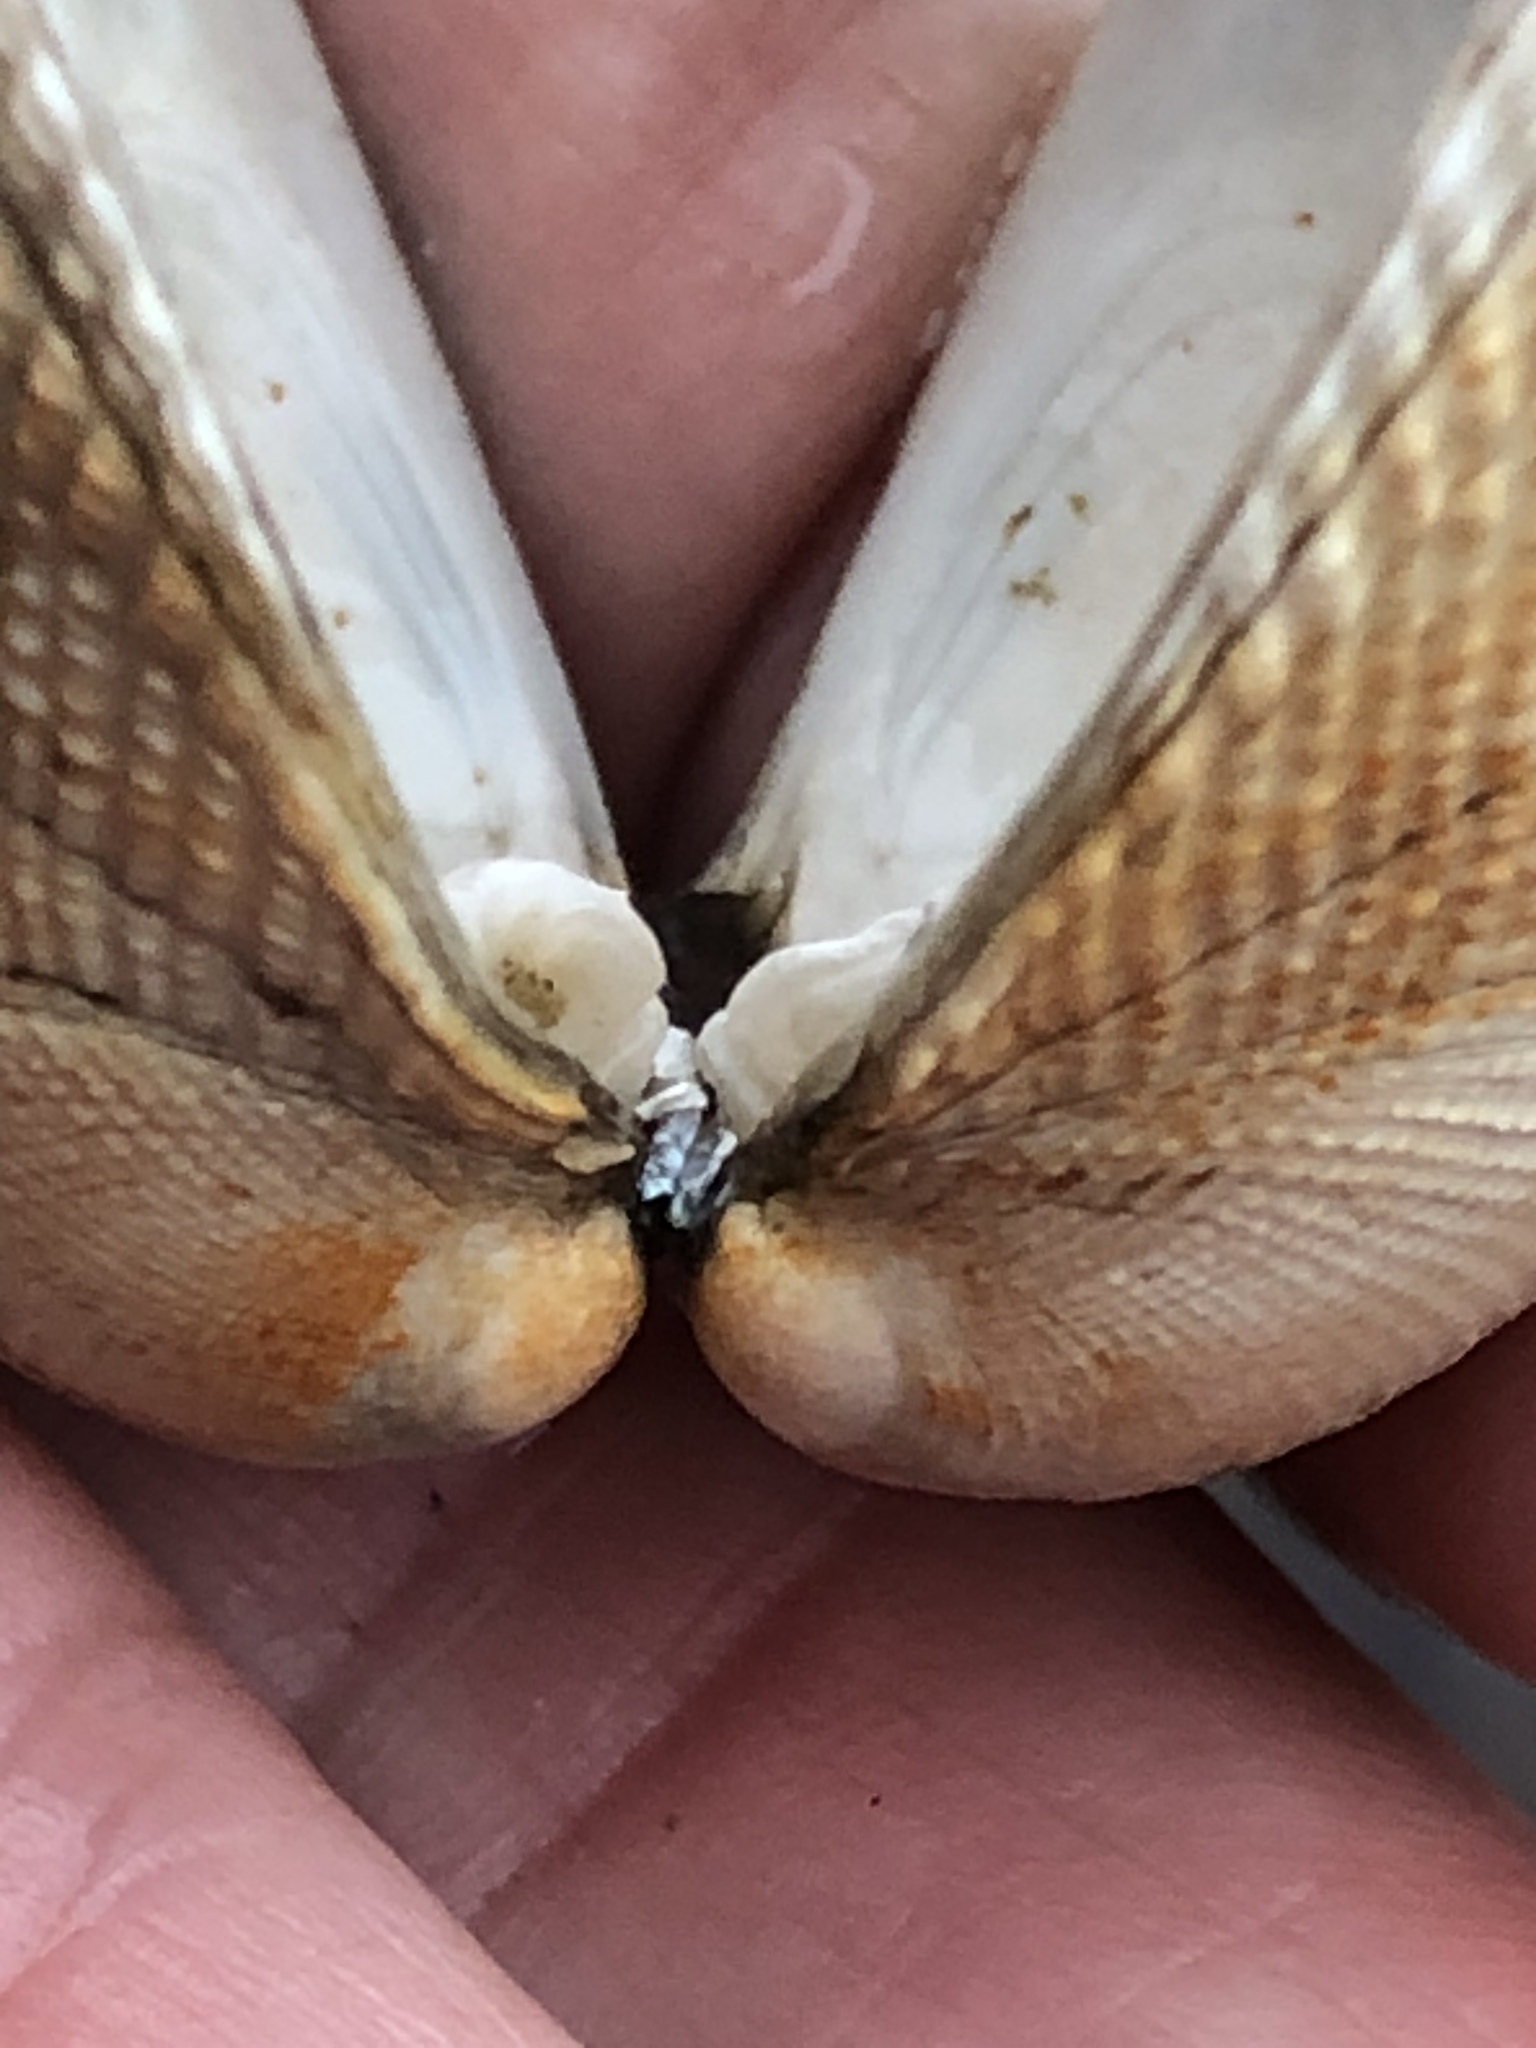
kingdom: Animalia
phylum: Mollusca
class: Bivalvia
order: Venerida
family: Veneridae
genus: Leukoma
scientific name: Leukoma staminea
